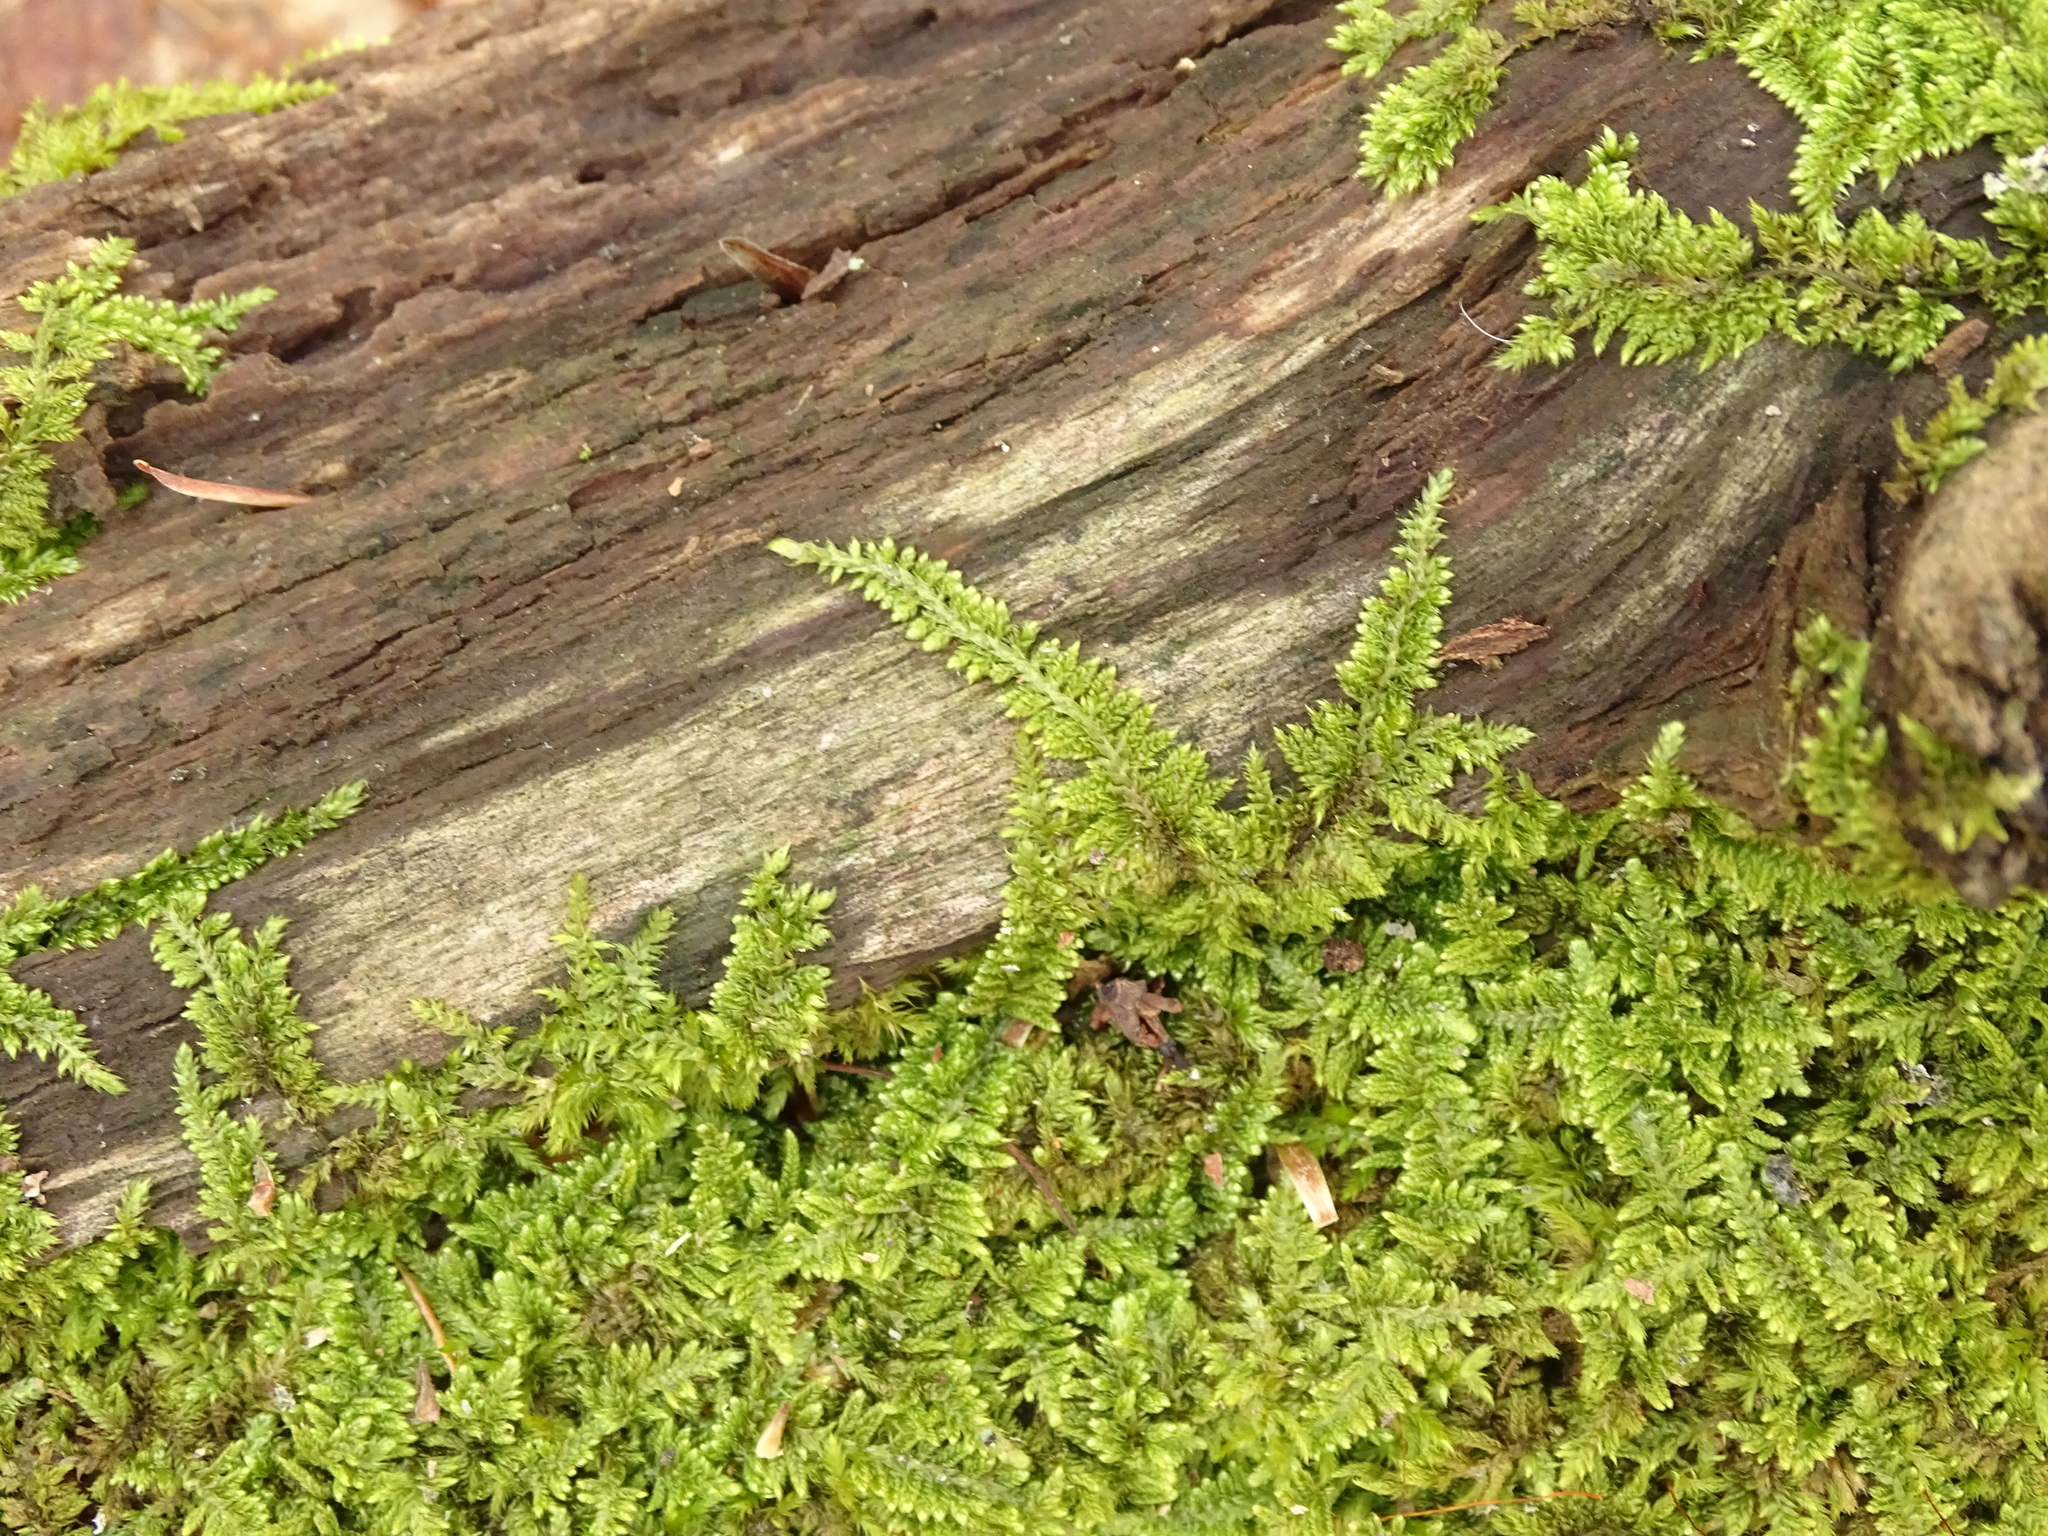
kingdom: Plantae
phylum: Bryophyta
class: Bryopsida
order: Hypnales
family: Callicladiaceae
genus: Callicladium
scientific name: Callicladium imponens
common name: Brocade moss
